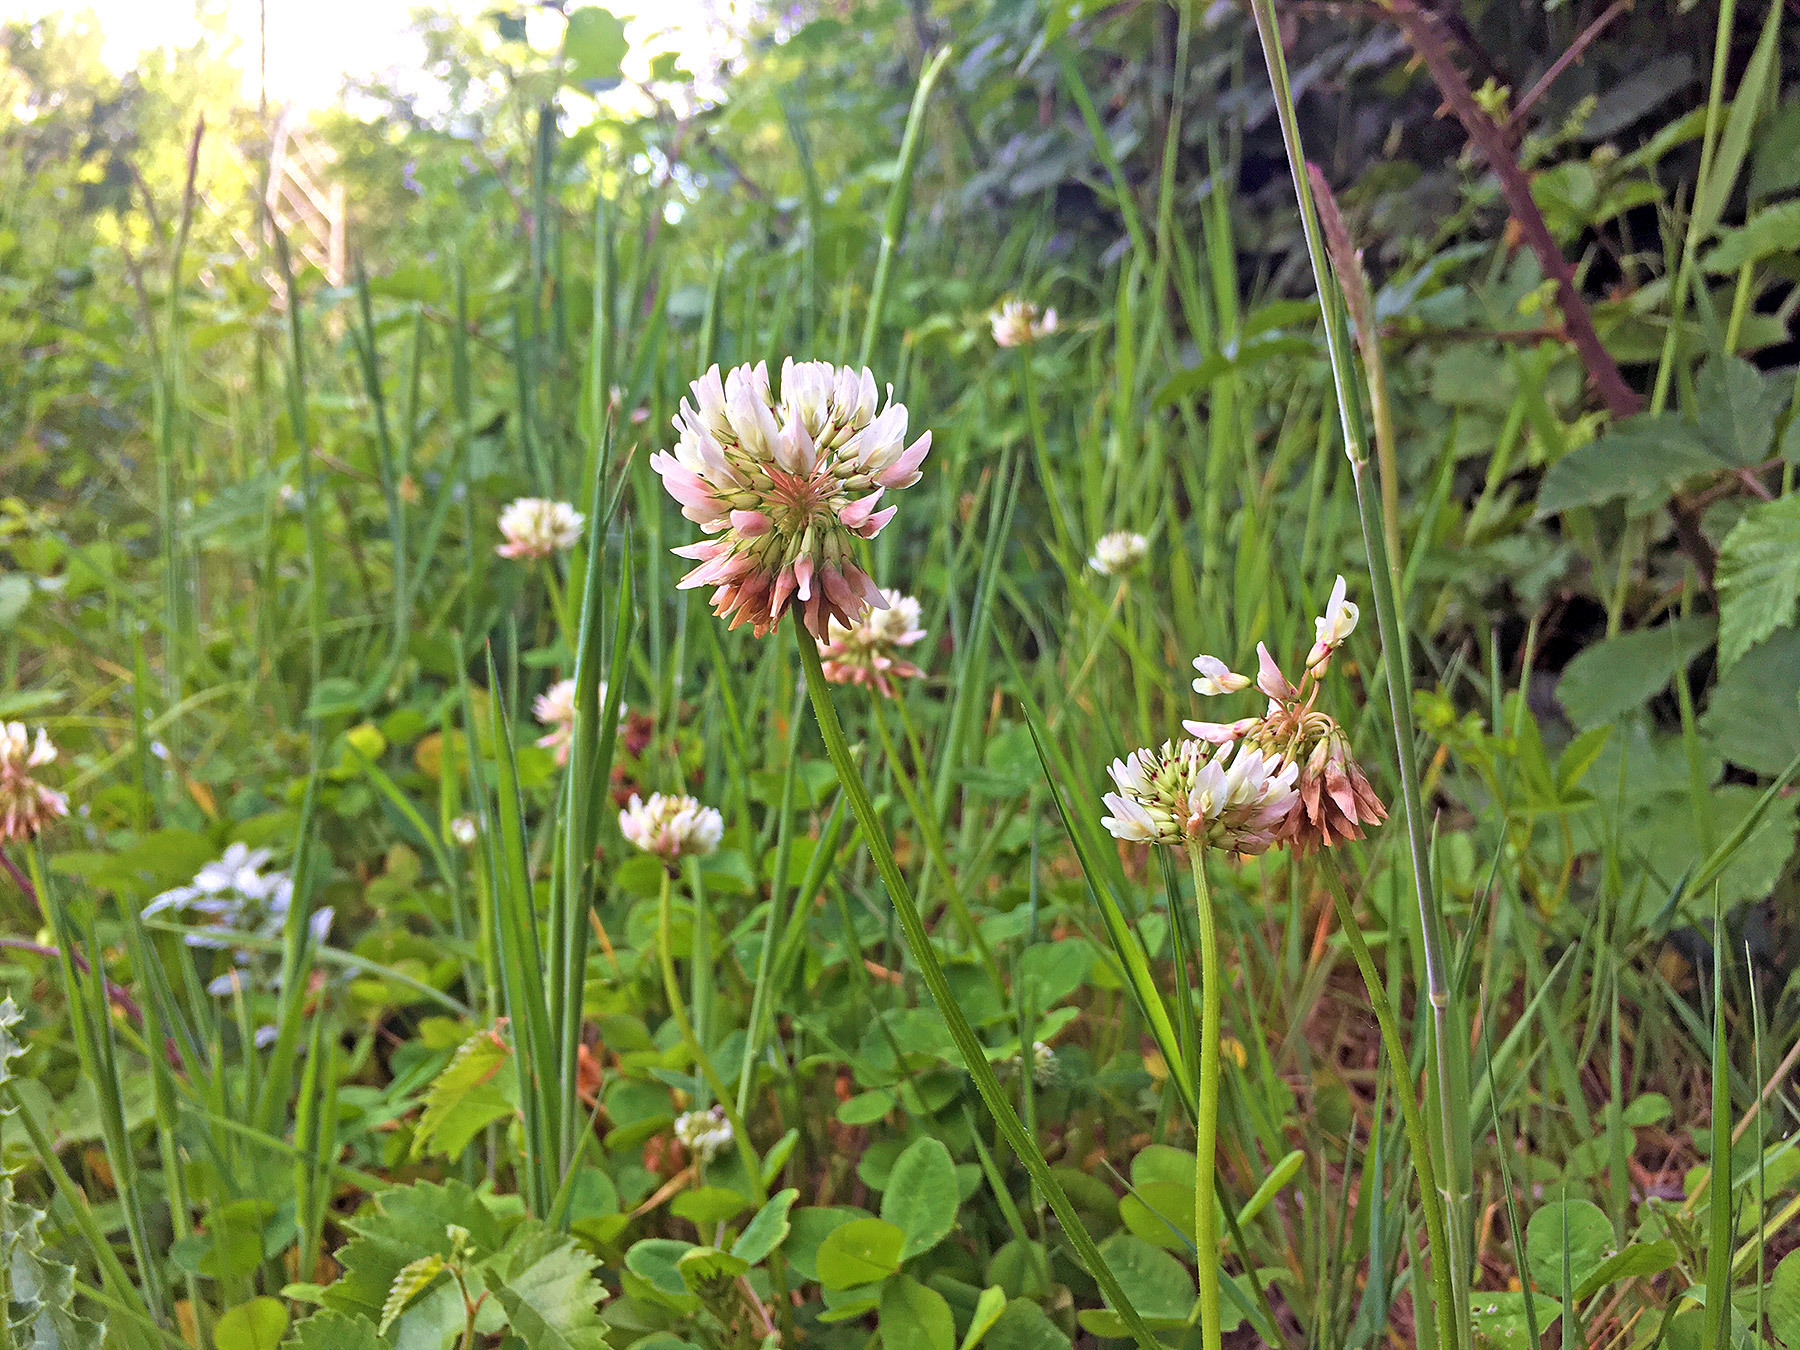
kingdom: Plantae
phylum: Tracheophyta
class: Magnoliopsida
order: Fabales
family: Fabaceae
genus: Trifolium
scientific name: Trifolium repens
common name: White clover
